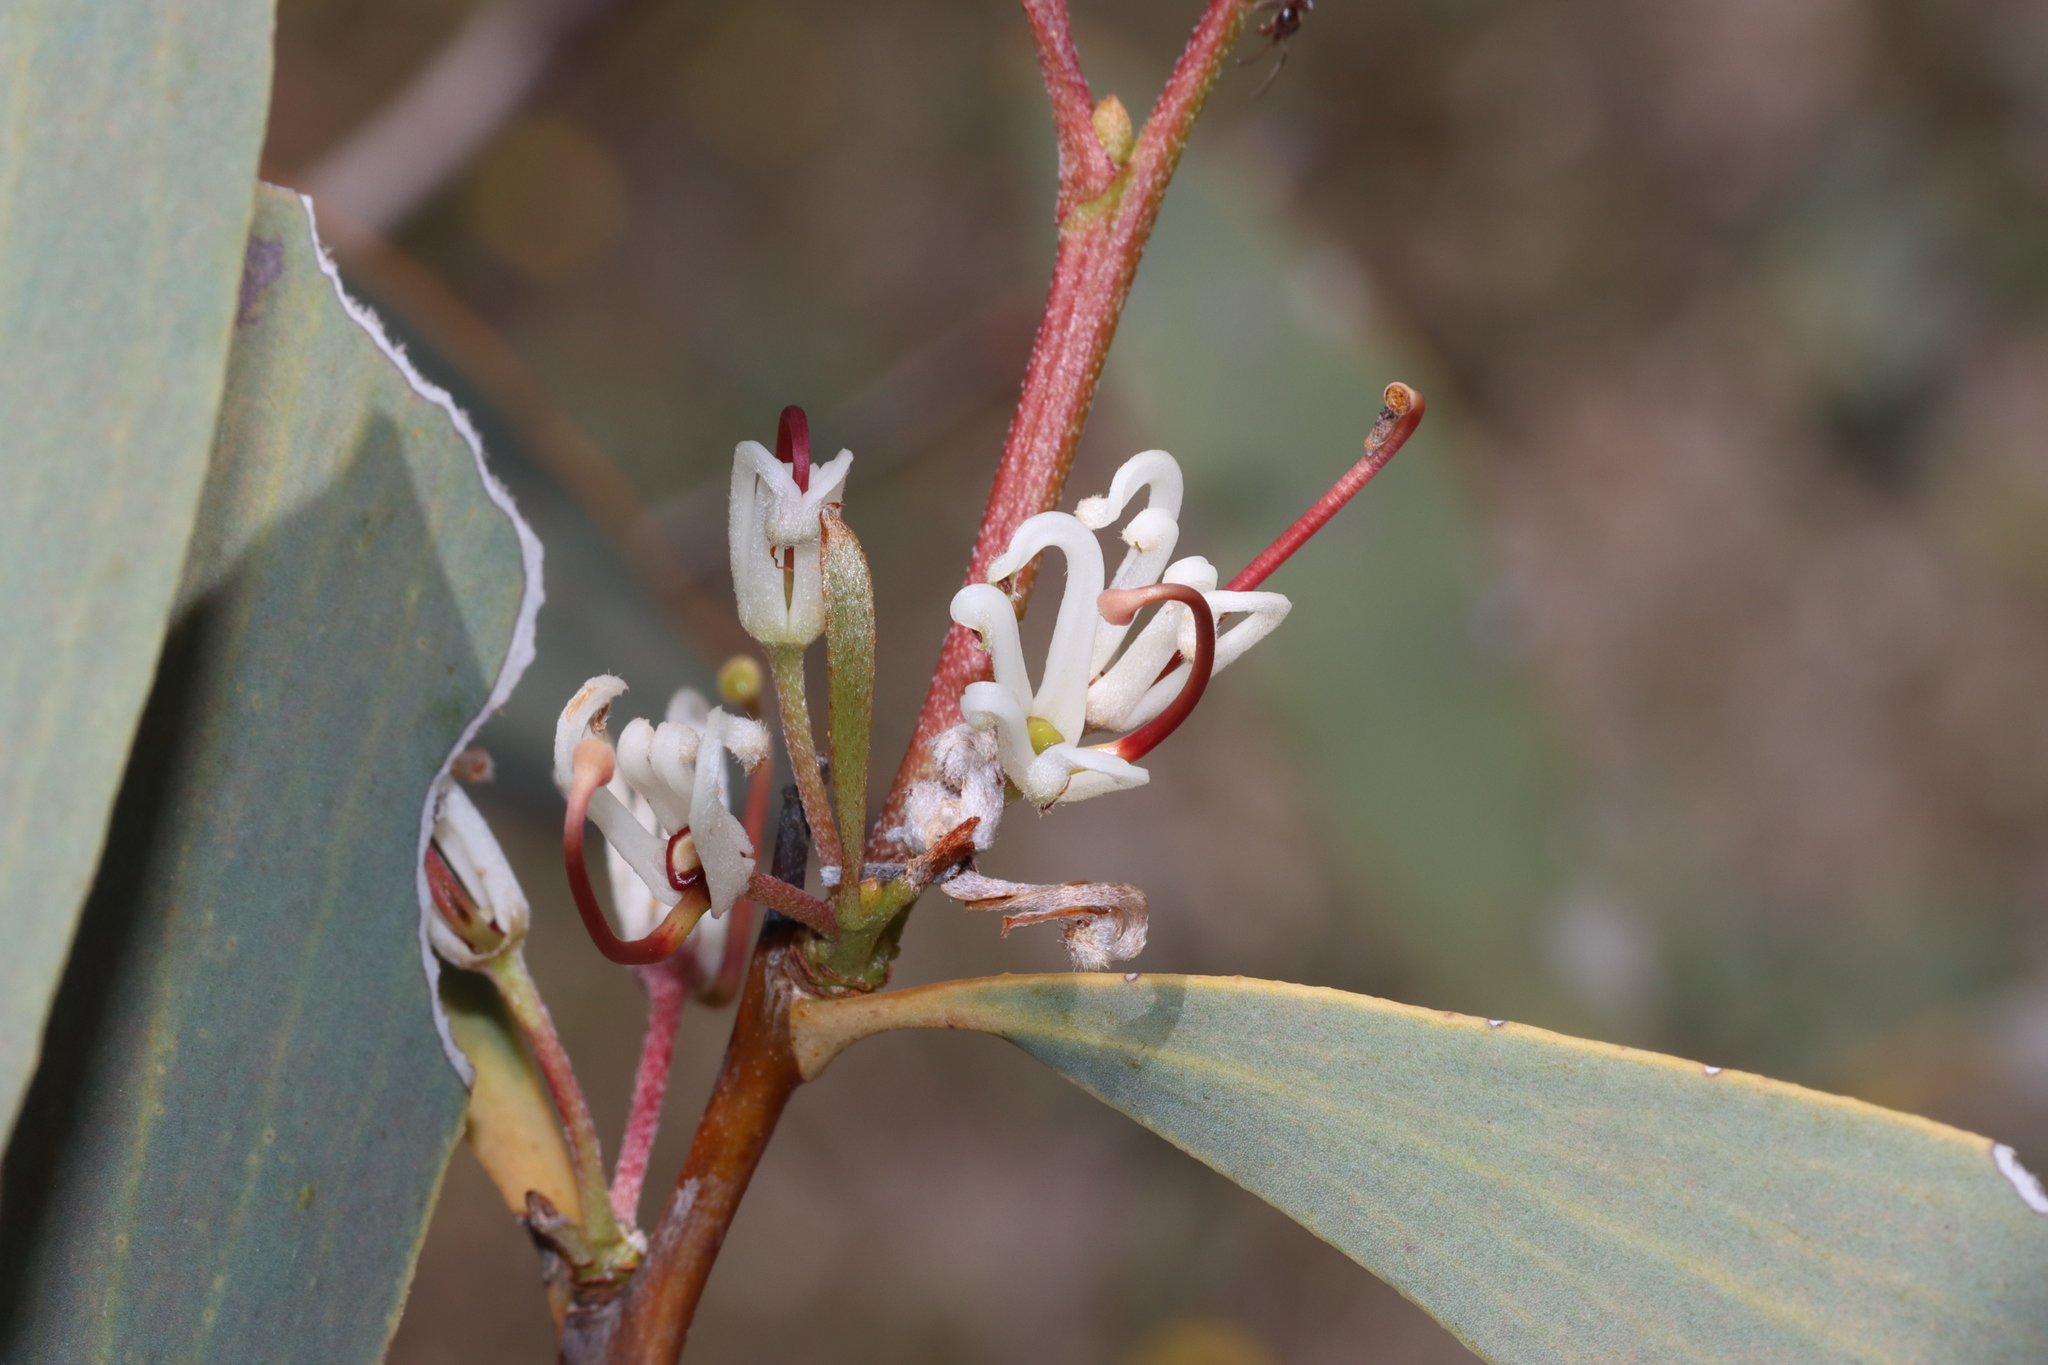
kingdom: Plantae
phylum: Tracheophyta
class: Magnoliopsida
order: Proteales
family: Proteaceae
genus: Hakea
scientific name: Hakea cyclocarpa
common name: Curved-fruit hakea
